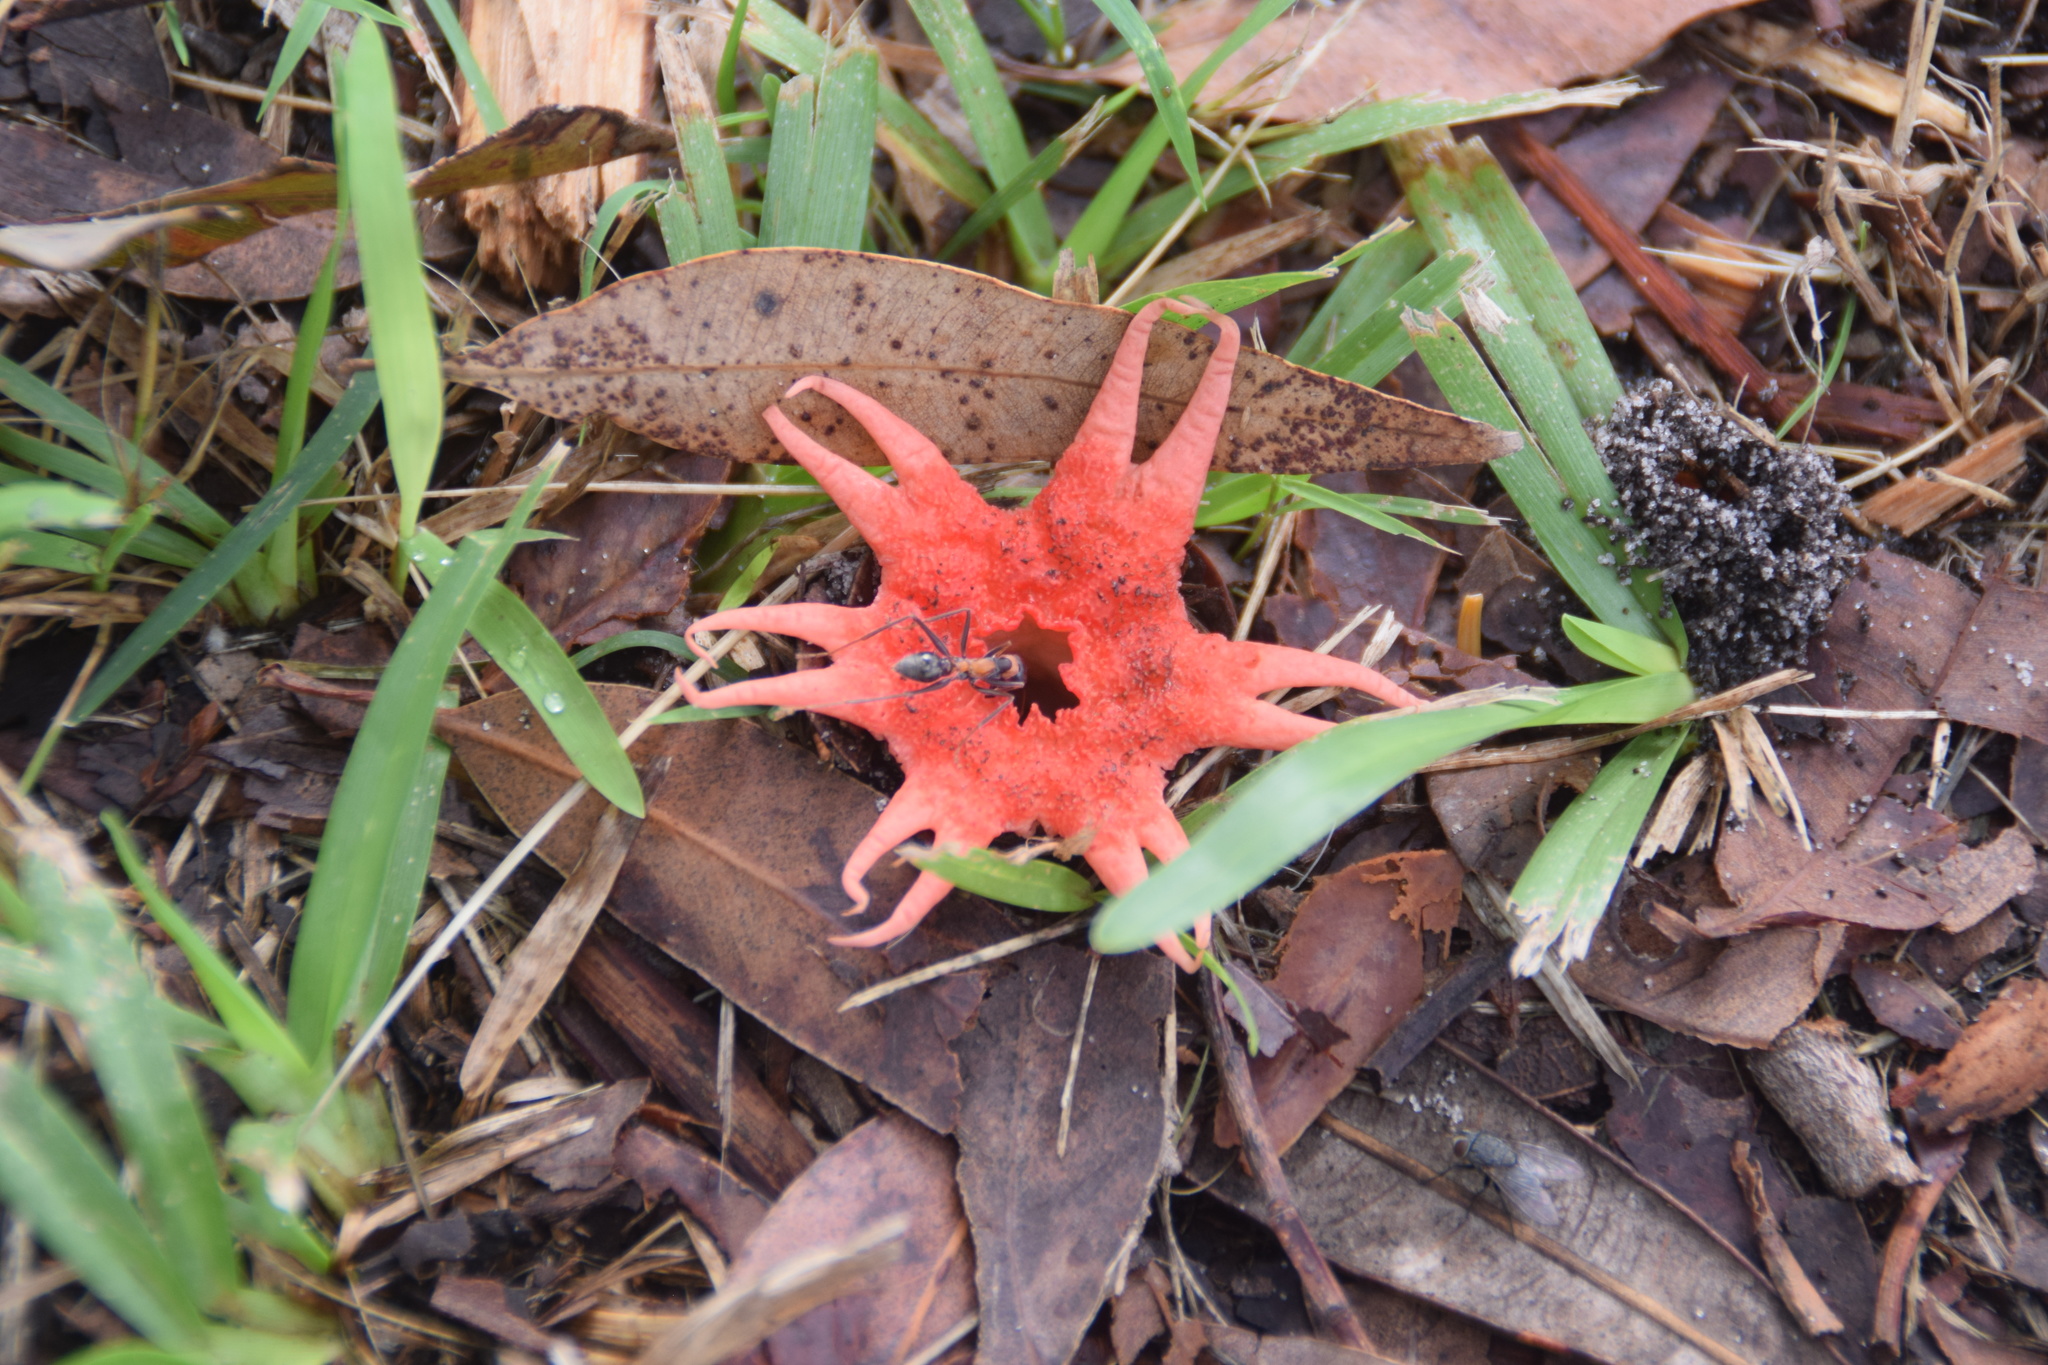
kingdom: Fungi
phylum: Basidiomycota
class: Agaricomycetes
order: Phallales
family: Phallaceae
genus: Aseroe
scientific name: Aseroe rubra
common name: Starfish fungus
